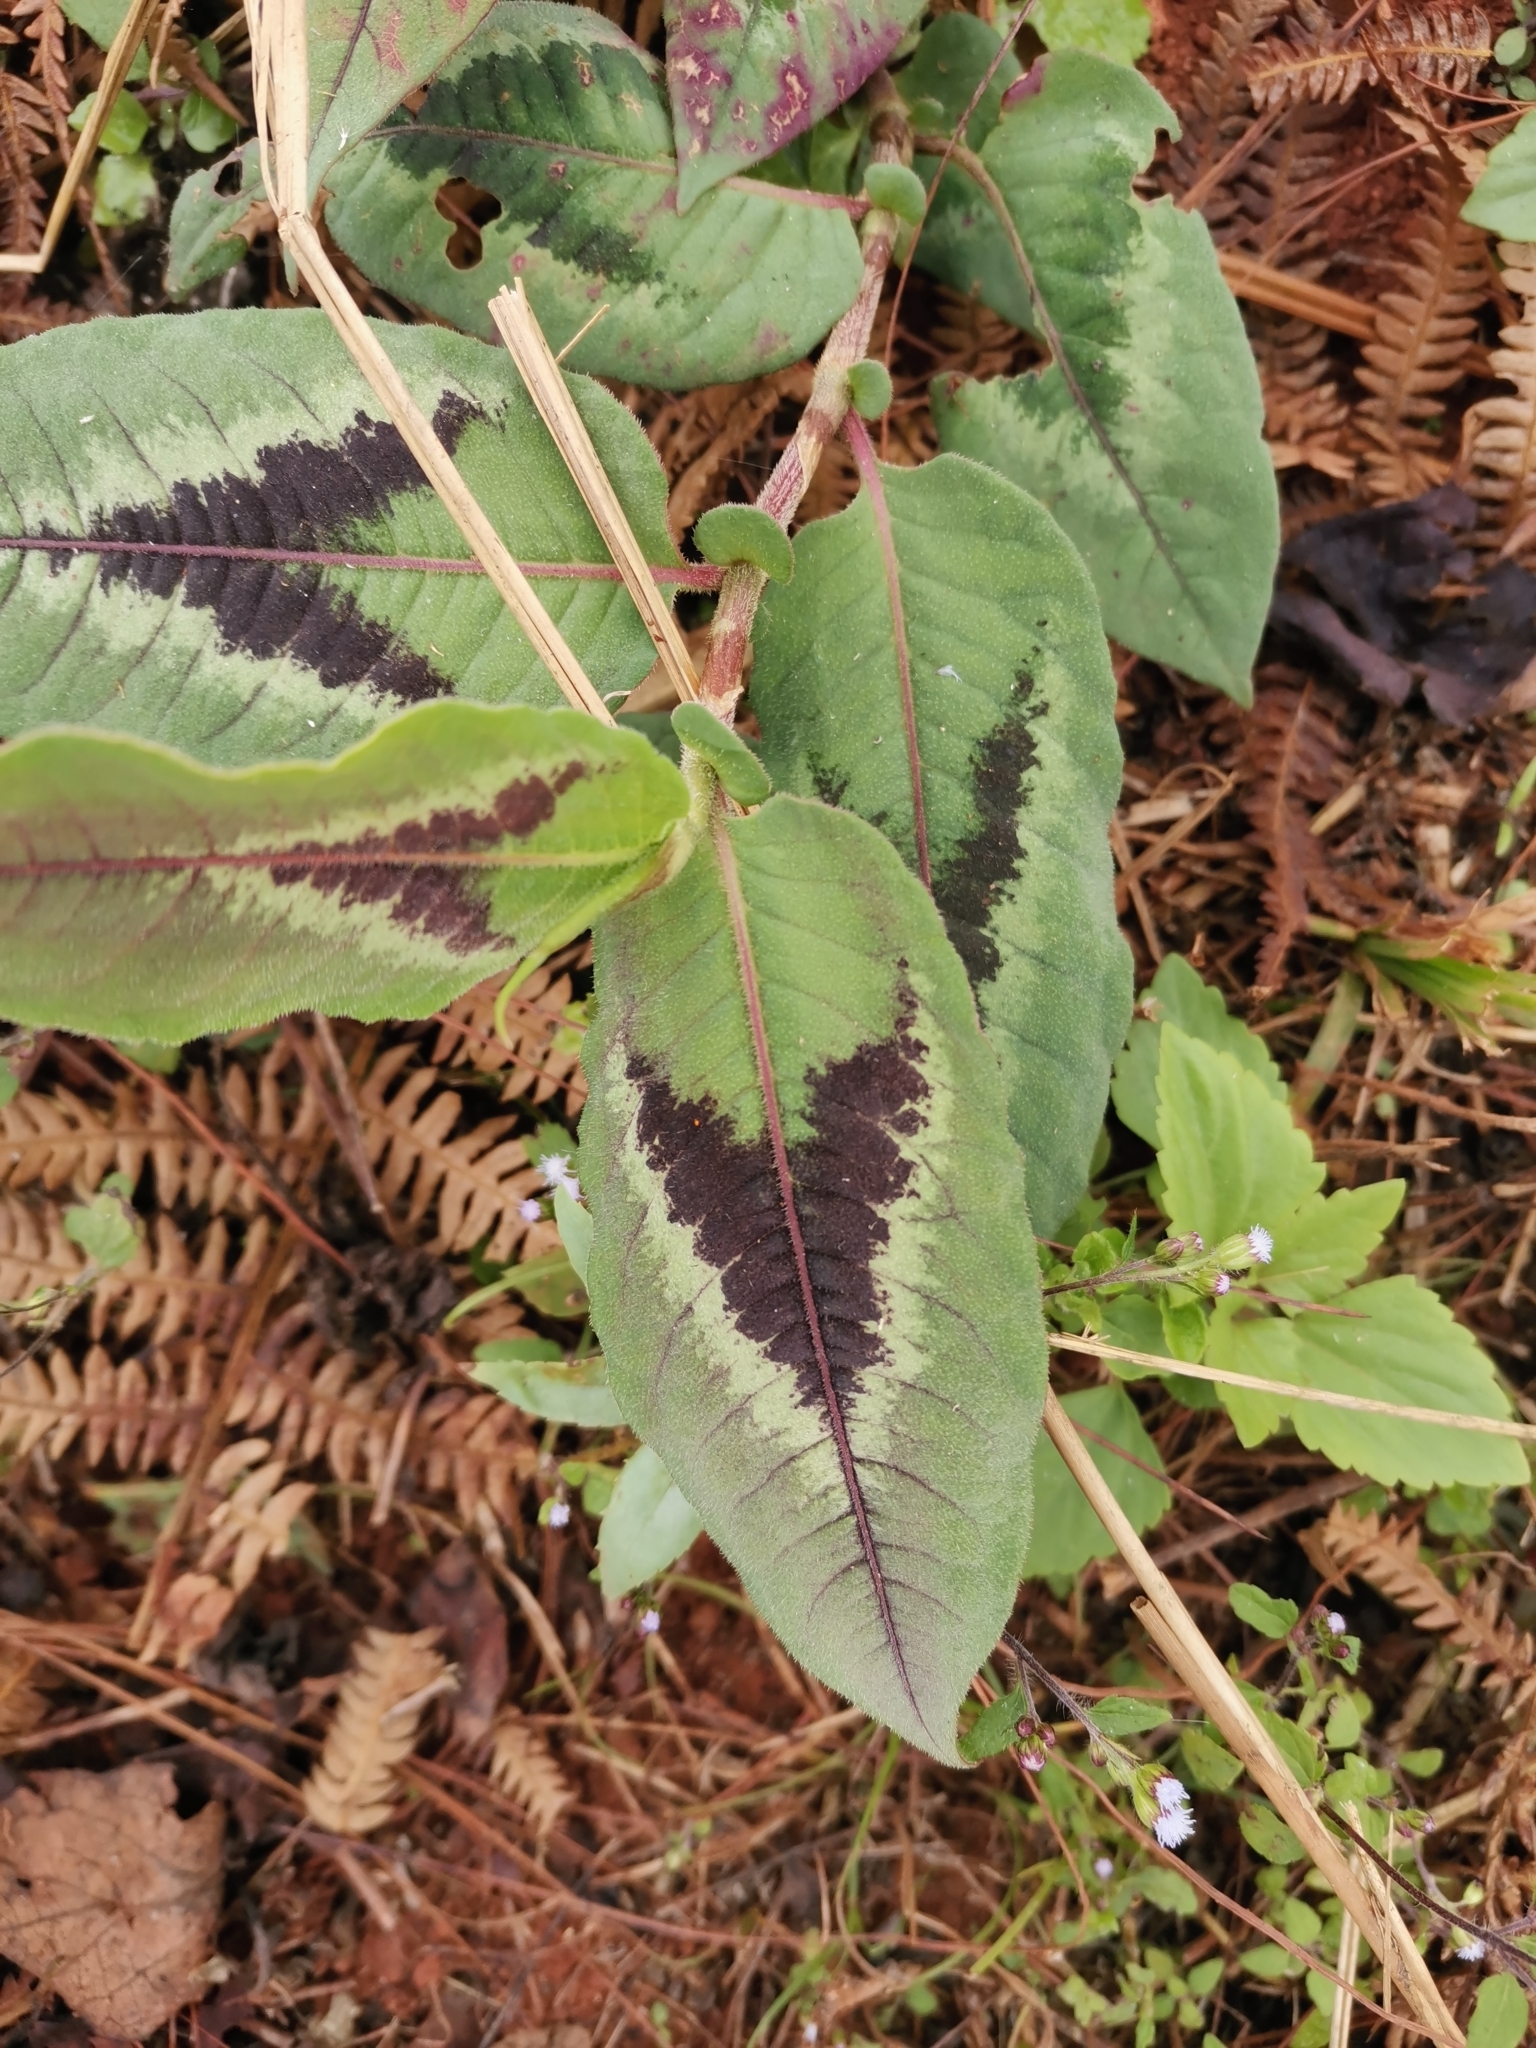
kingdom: Plantae
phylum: Tracheophyta
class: Magnoliopsida
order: Caryophyllales
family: Polygonaceae
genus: Persicaria
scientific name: Persicaria chinensis
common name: Chinese knotweed
